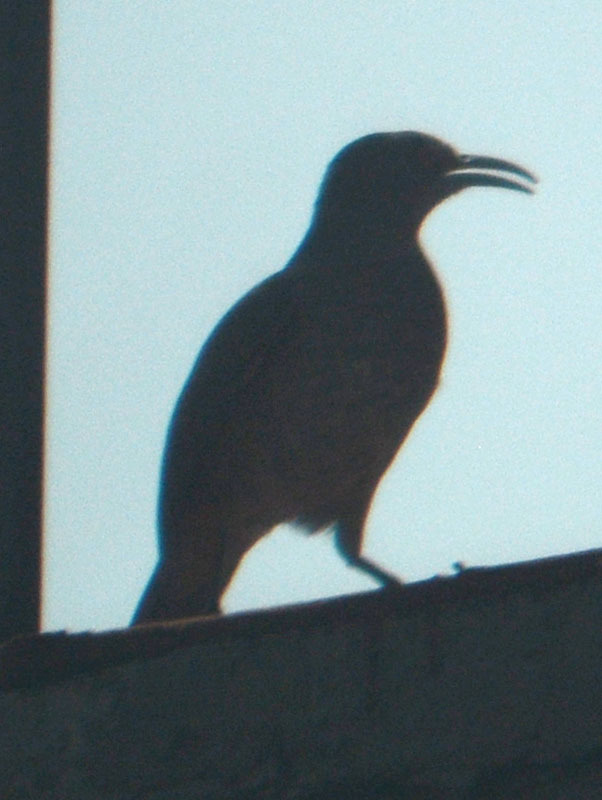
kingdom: Animalia
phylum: Chordata
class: Aves
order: Passeriformes
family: Mimidae
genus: Toxostoma
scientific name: Toxostoma curvirostre
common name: Curve-billed thrasher
